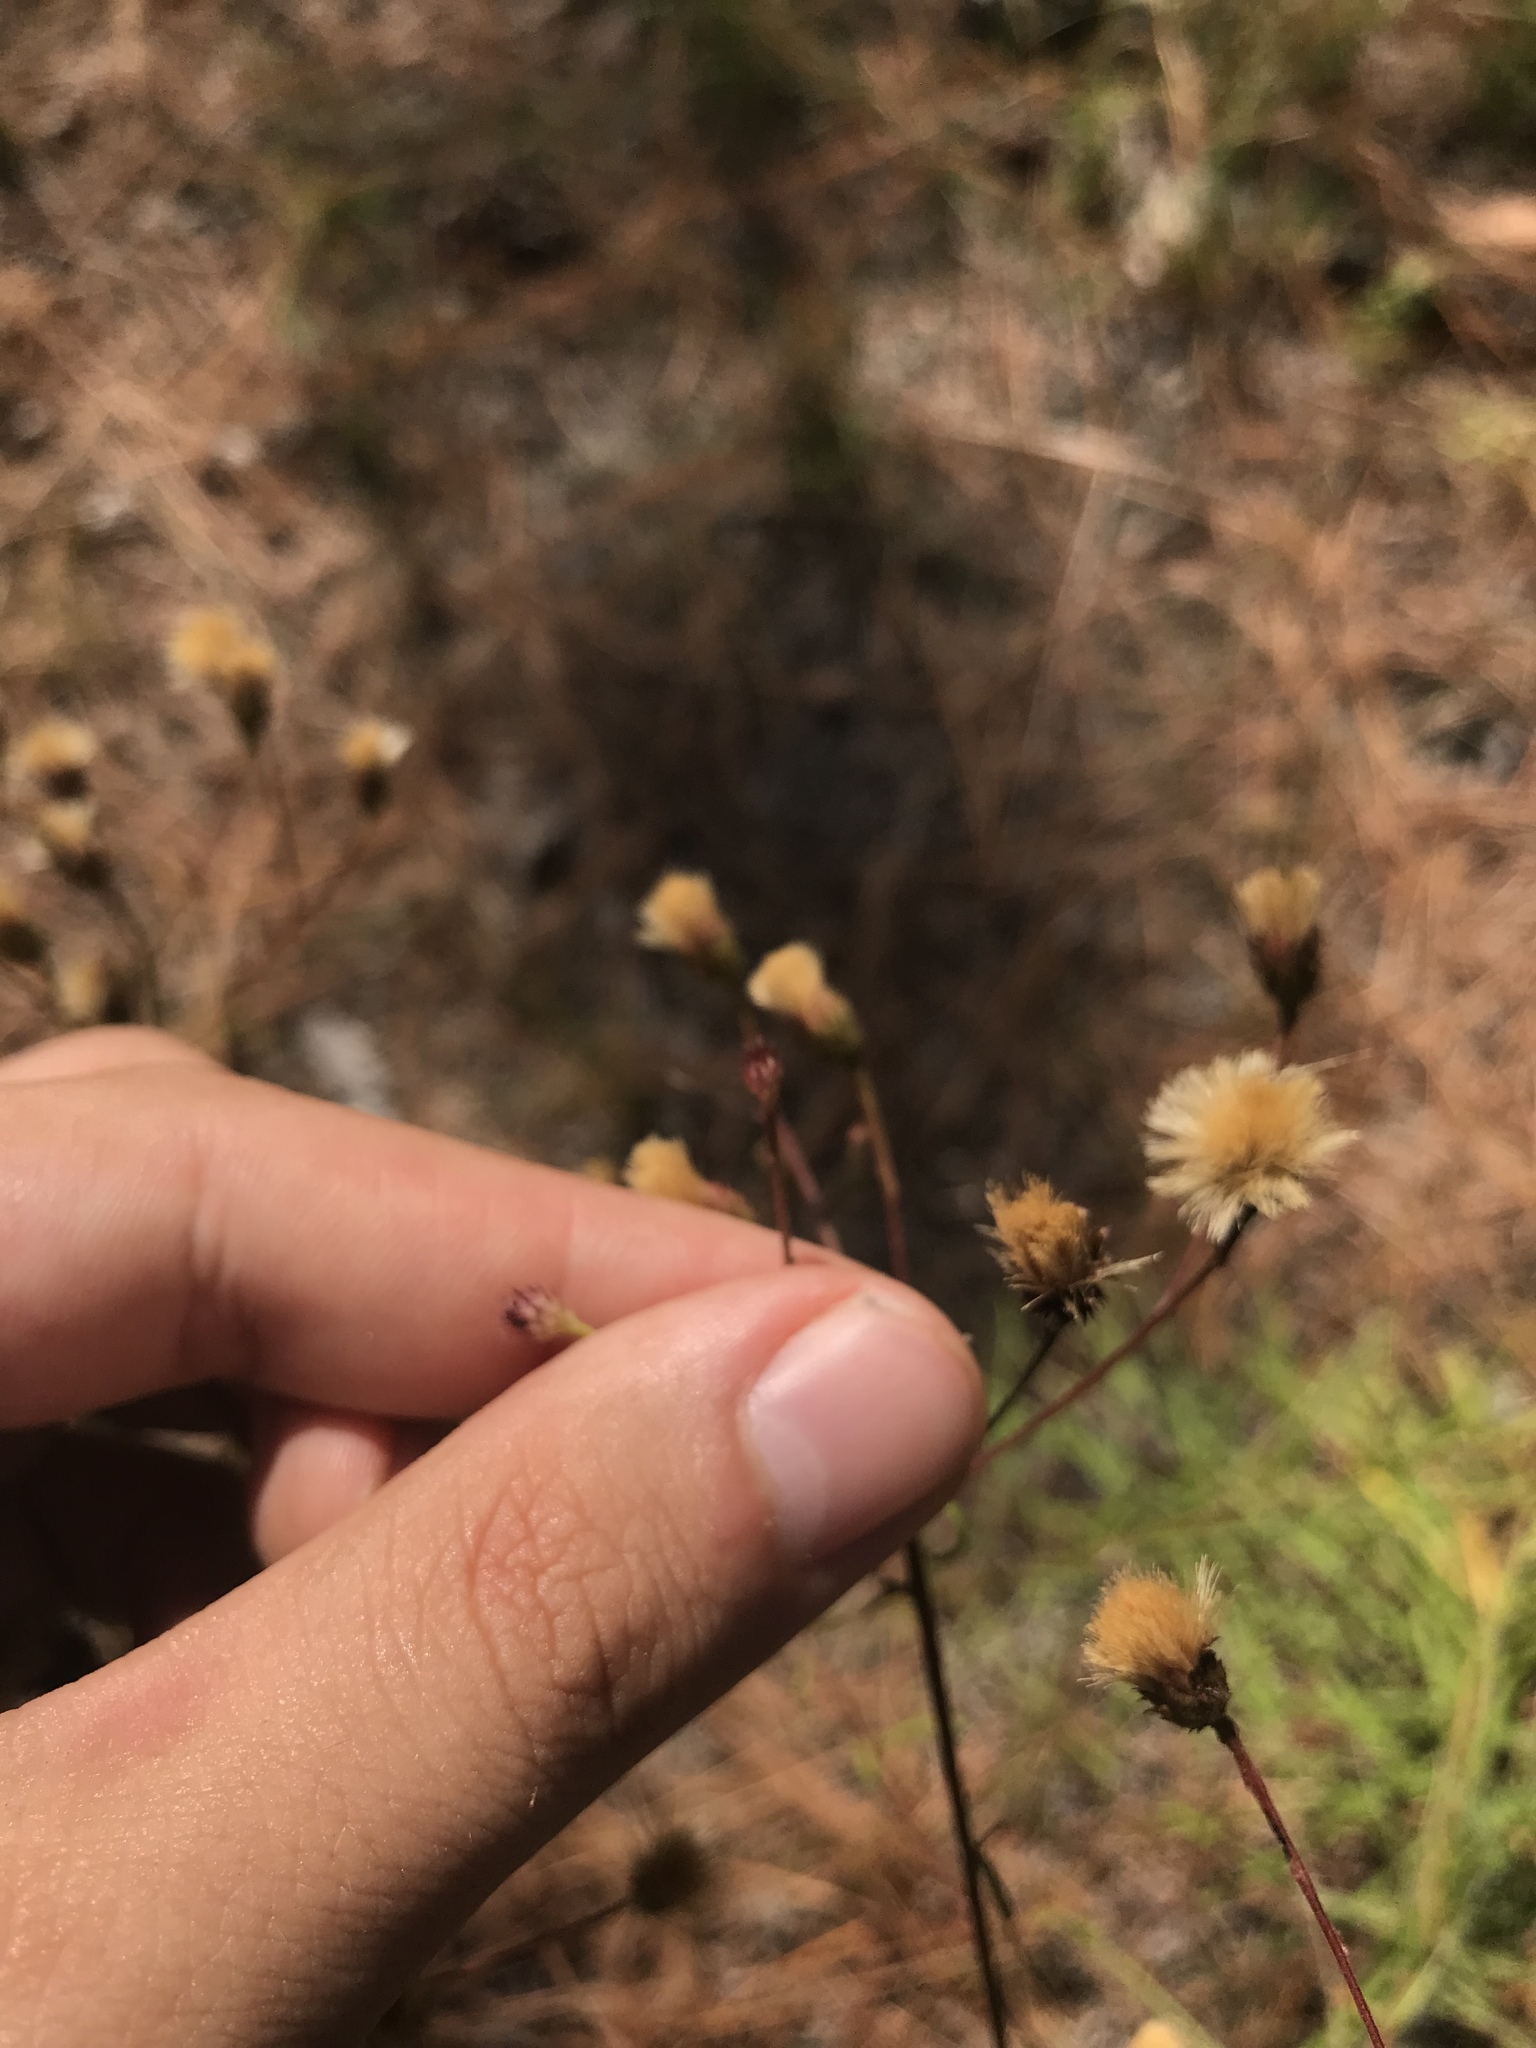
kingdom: Plantae
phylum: Tracheophyta
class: Magnoliopsida
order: Asterales
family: Asteraceae
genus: Vernonia
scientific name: Vernonia angustifolia
